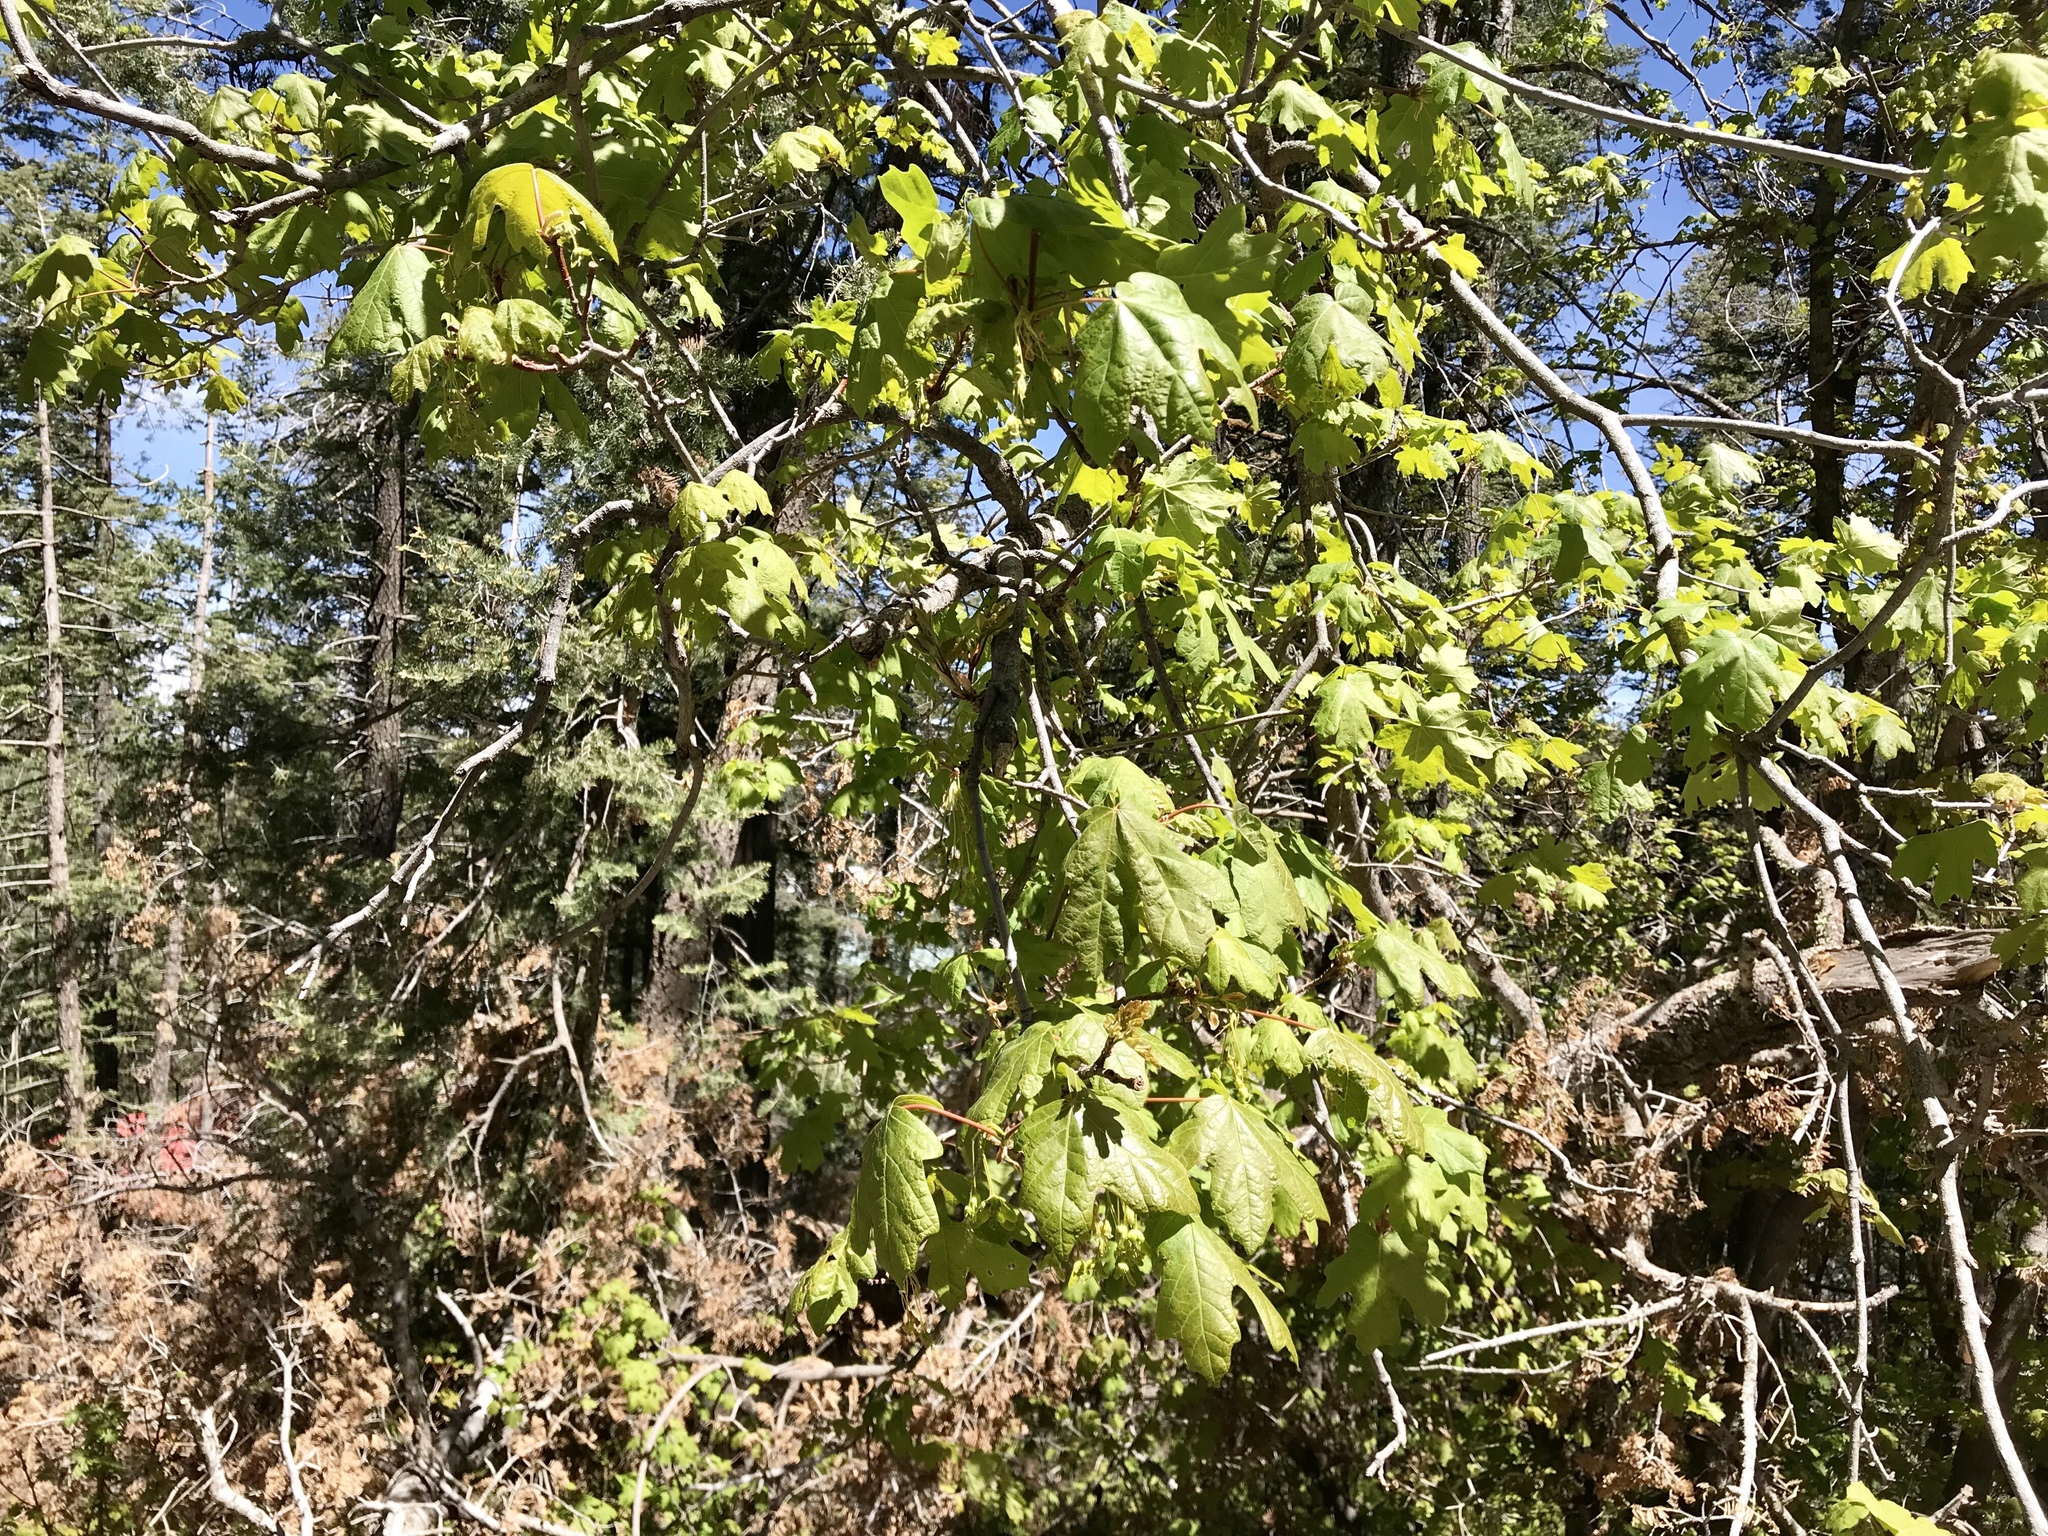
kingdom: Plantae
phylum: Tracheophyta
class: Magnoliopsida
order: Sapindales
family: Sapindaceae
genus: Acer
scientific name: Acer grandidentatum
